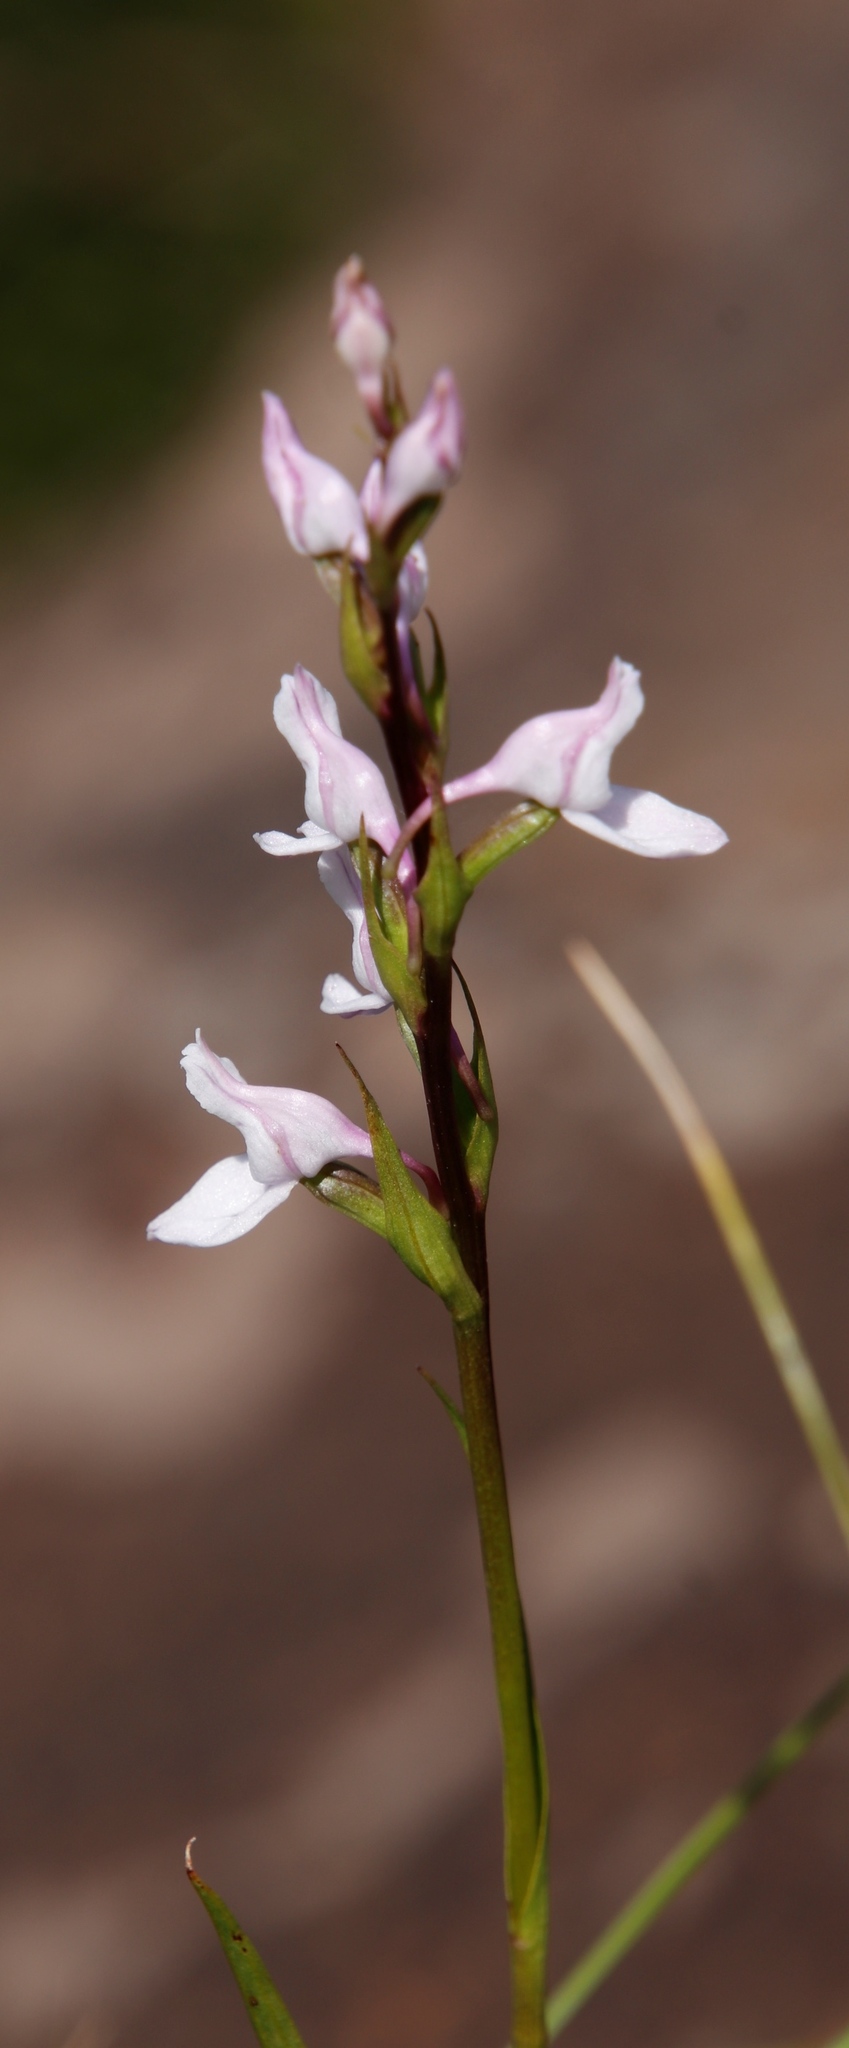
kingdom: Plantae
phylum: Tracheophyta
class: Liliopsida
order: Asparagales
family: Orchidaceae
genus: Brownleea
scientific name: Brownleea recurvata
